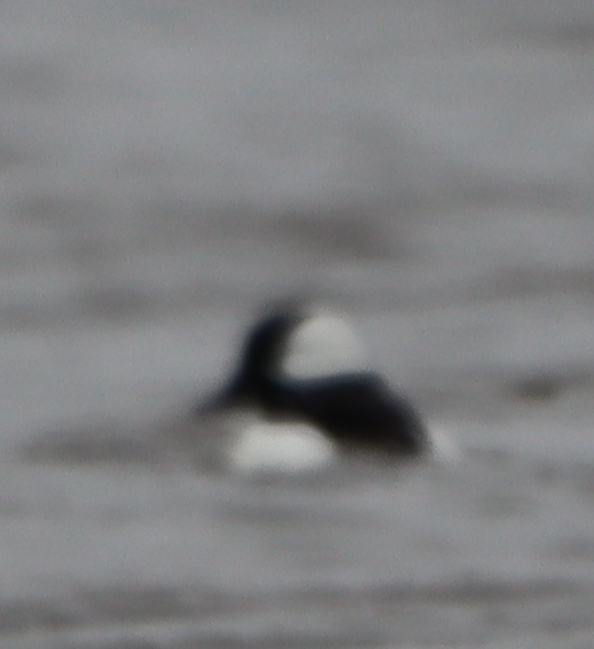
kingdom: Animalia
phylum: Chordata
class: Aves
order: Anseriformes
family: Anatidae
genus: Bucephala
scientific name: Bucephala albeola
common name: Bufflehead
